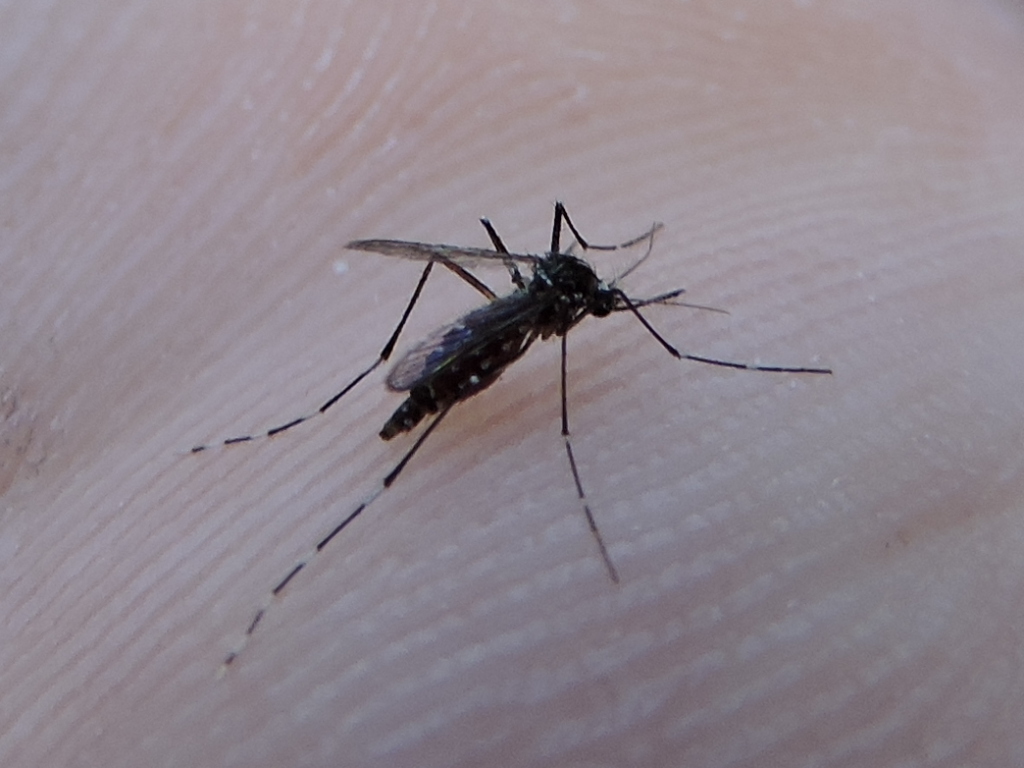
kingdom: Animalia
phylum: Arthropoda
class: Insecta
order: Diptera
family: Culicidae
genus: Aedes
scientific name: Aedes albopictus
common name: Tiger mosquito
